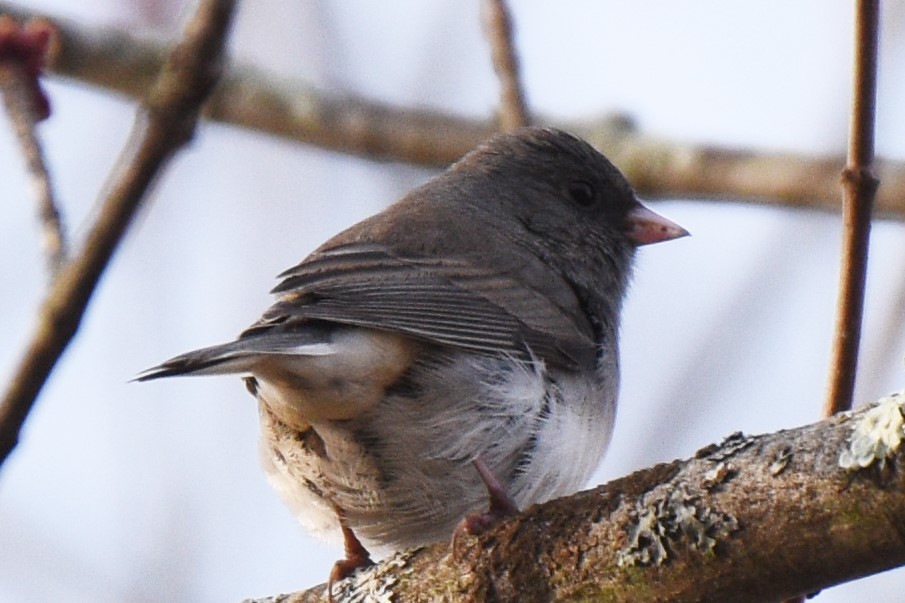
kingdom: Animalia
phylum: Chordata
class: Aves
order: Passeriformes
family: Passerellidae
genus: Junco
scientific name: Junco hyemalis
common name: Dark-eyed junco
